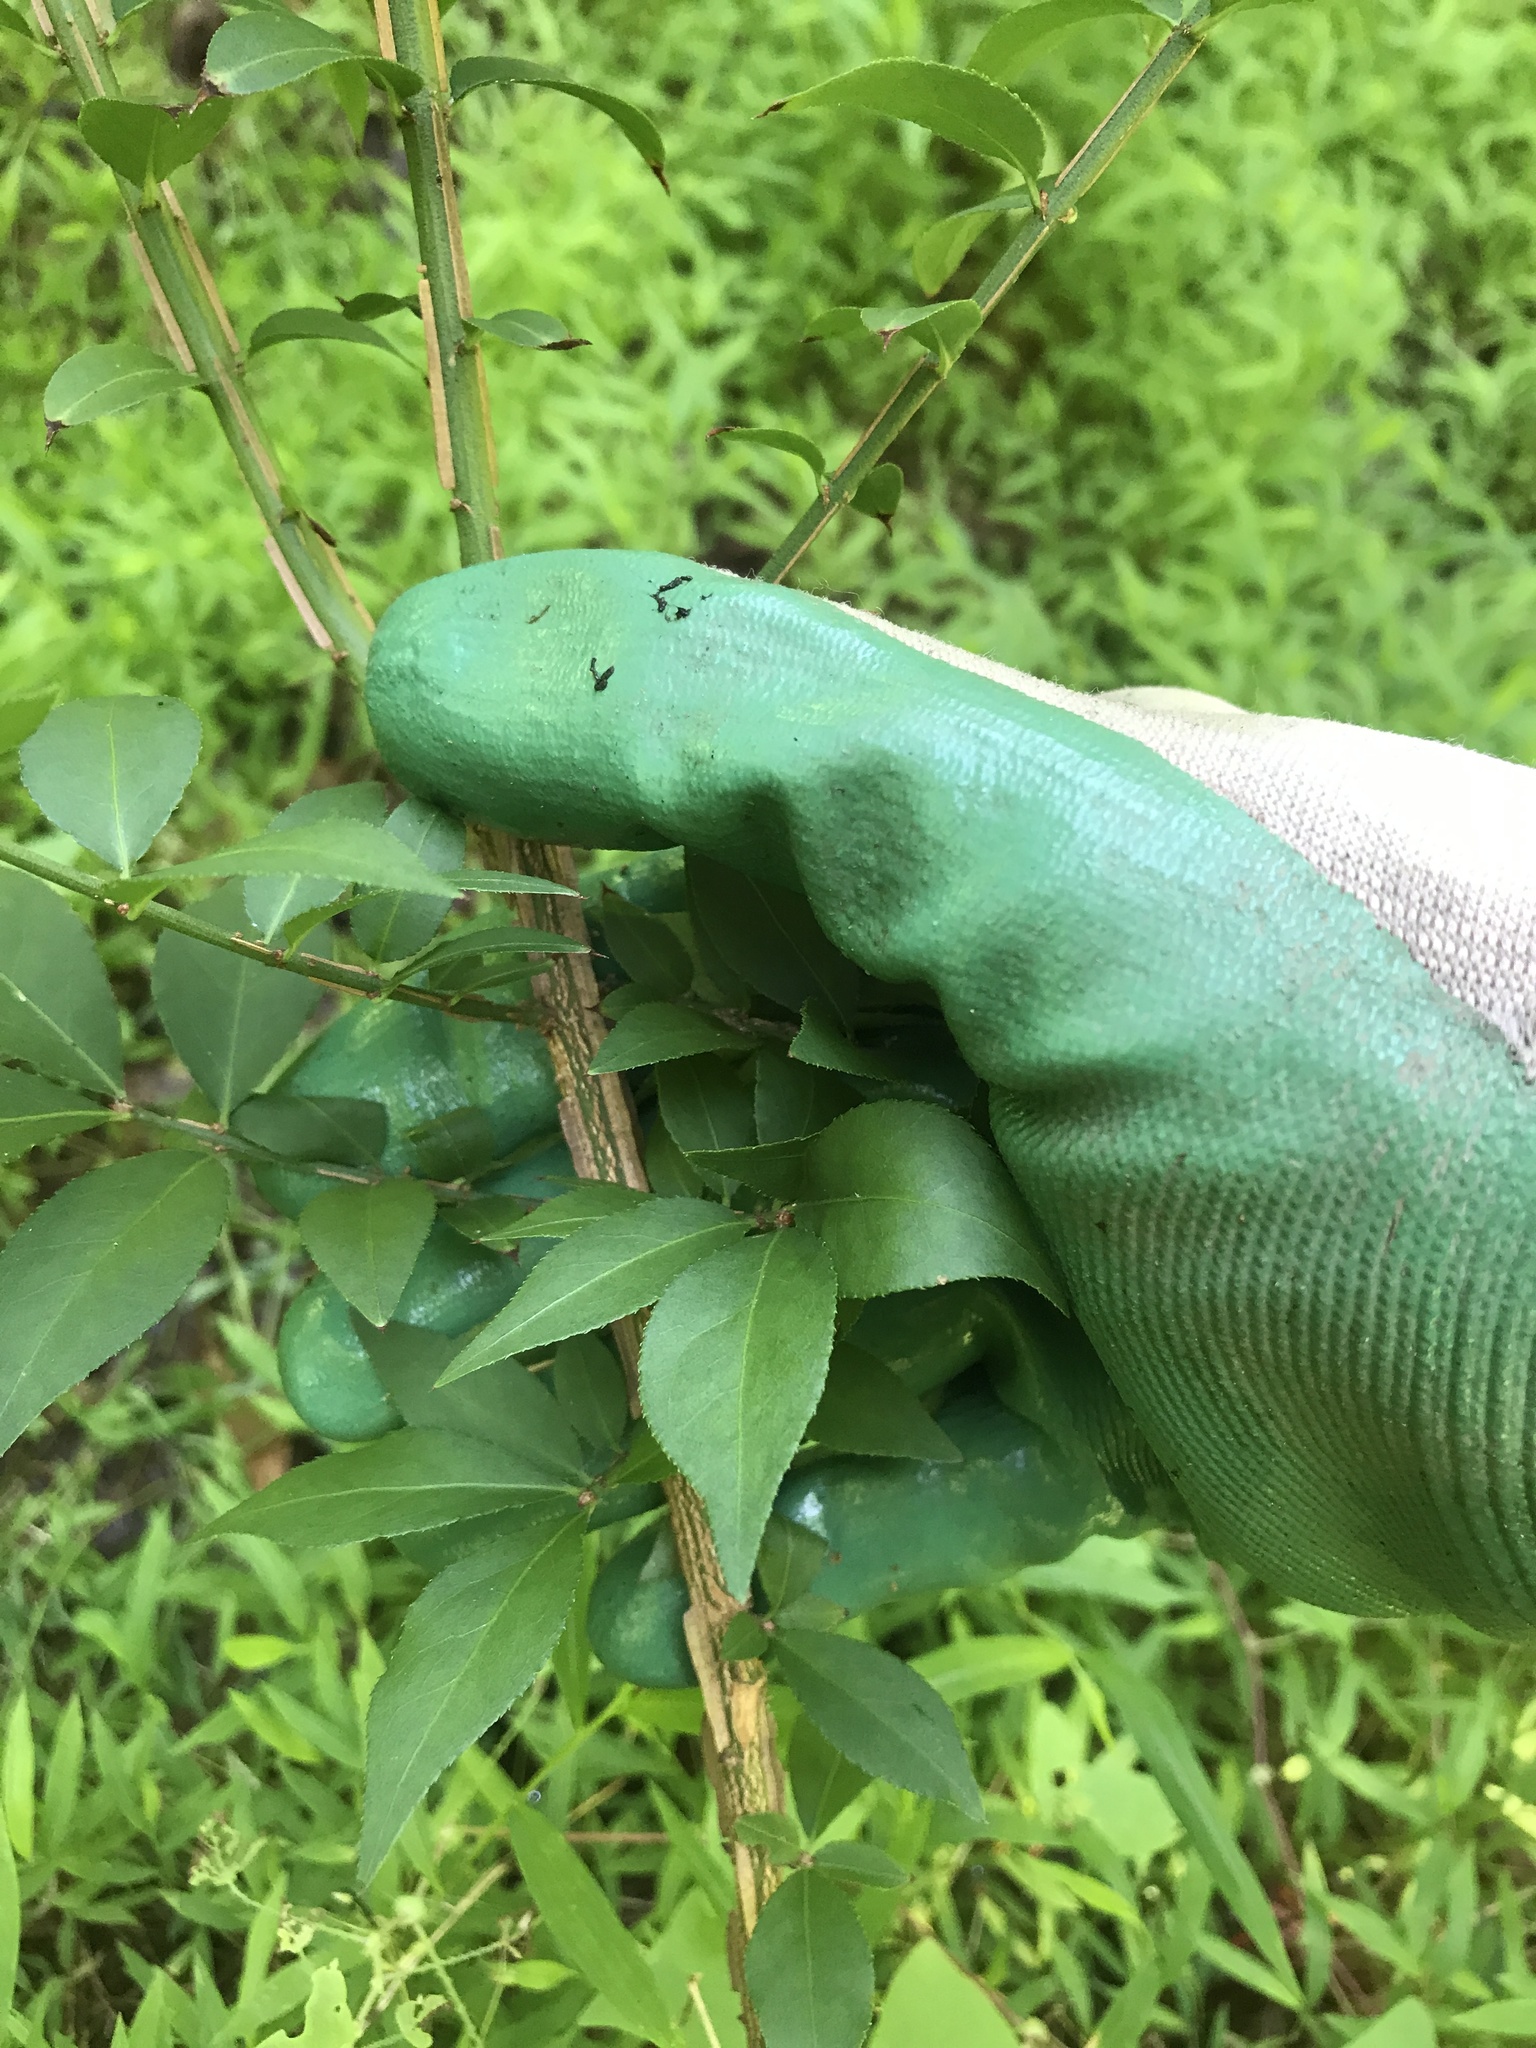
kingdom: Plantae
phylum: Tracheophyta
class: Magnoliopsida
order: Celastrales
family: Celastraceae
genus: Euonymus
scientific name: Euonymus alatus
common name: Winged euonymus
